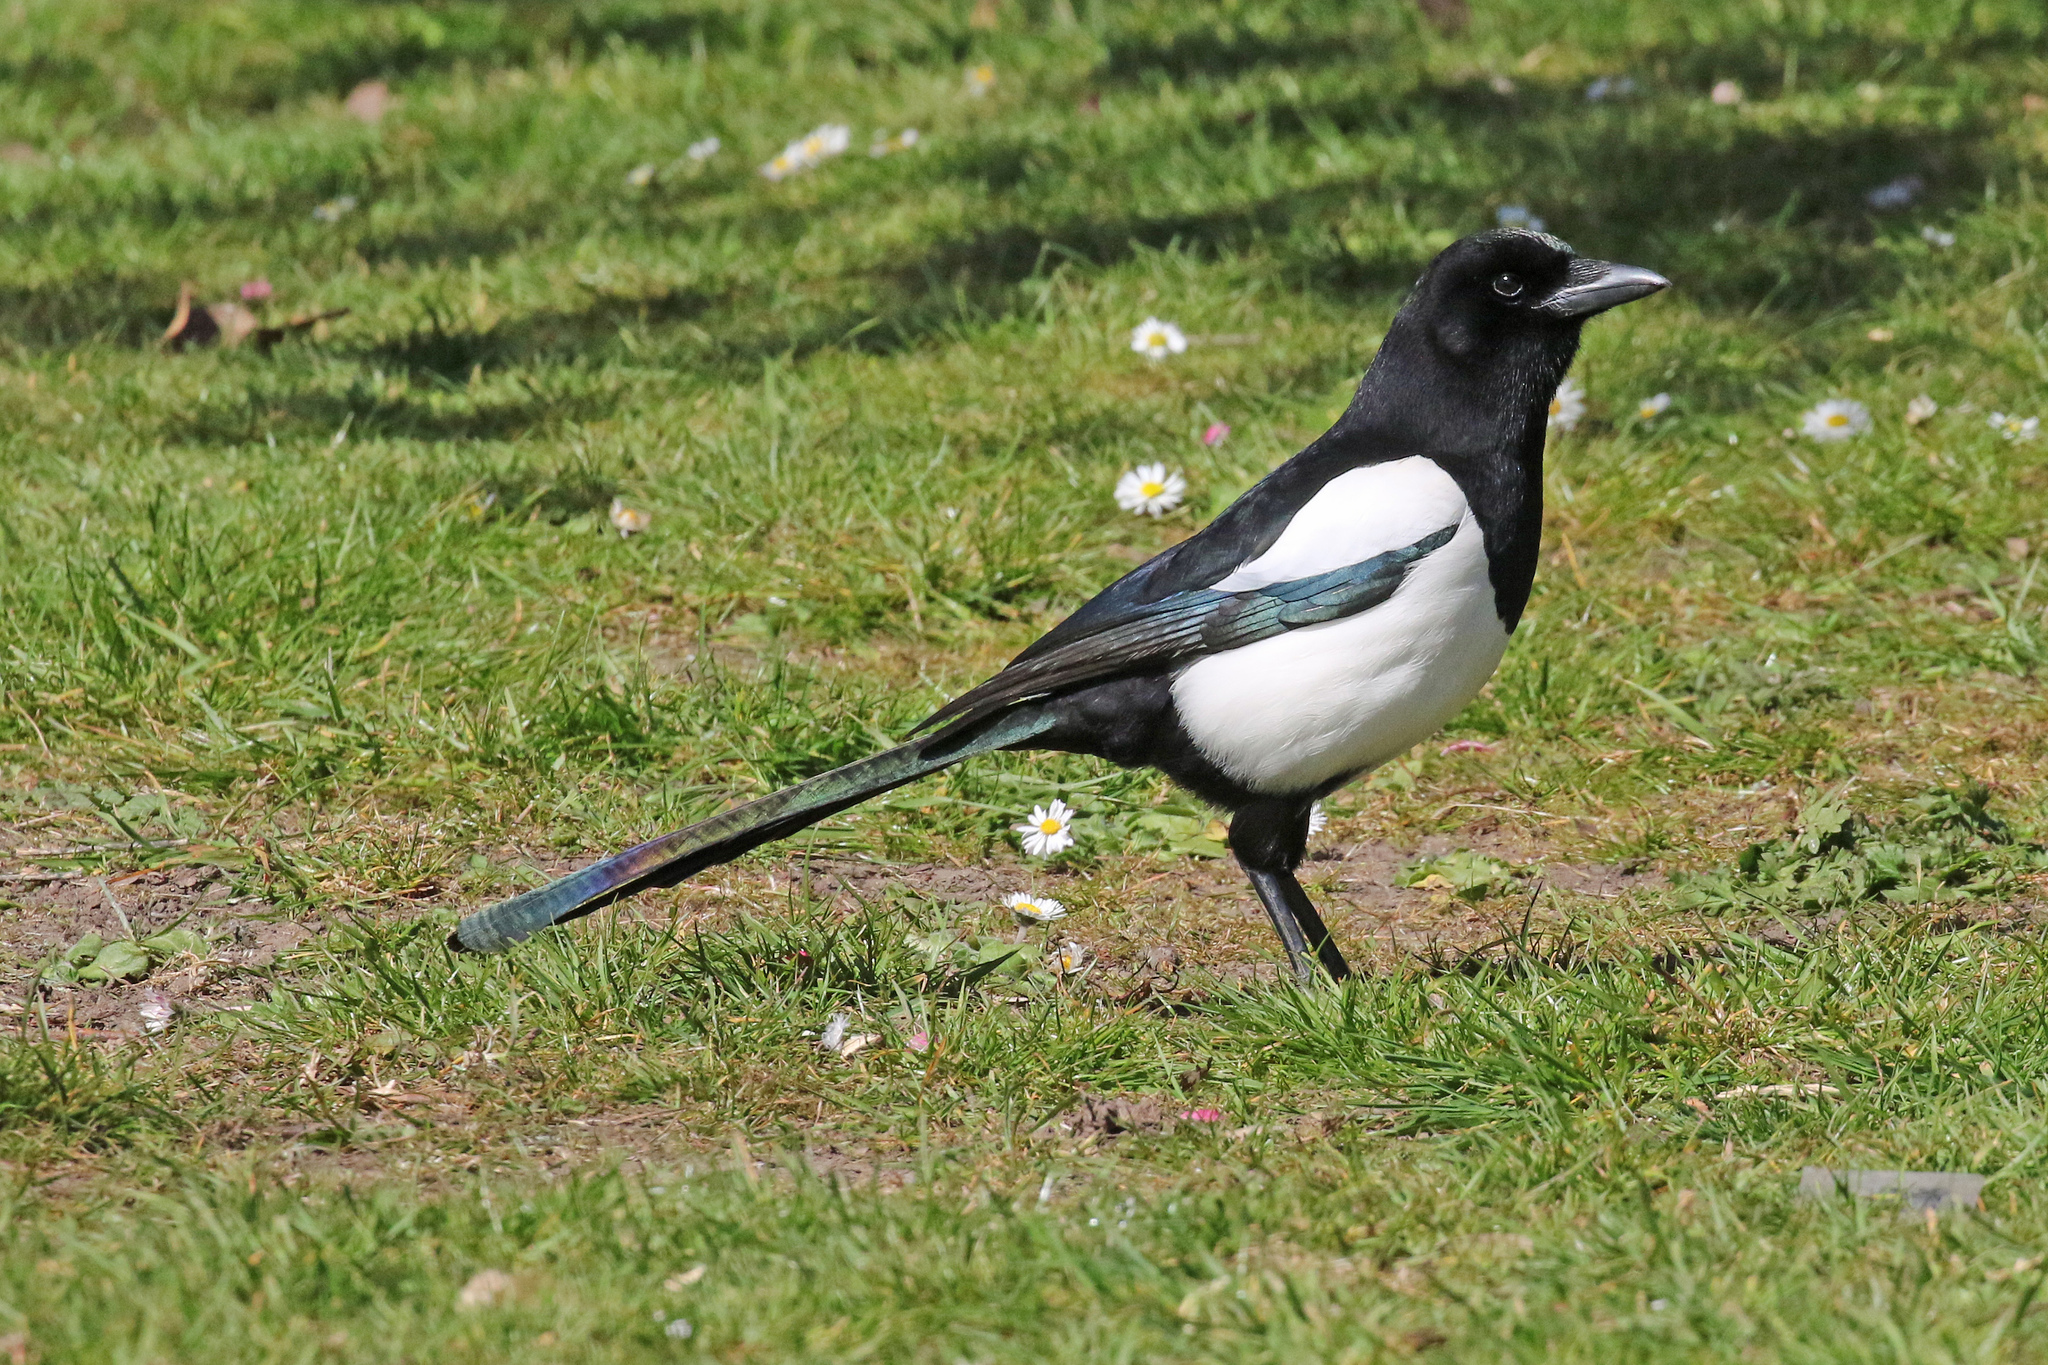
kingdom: Animalia
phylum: Chordata
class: Aves
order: Passeriformes
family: Corvidae
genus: Pica
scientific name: Pica pica
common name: Eurasian magpie
